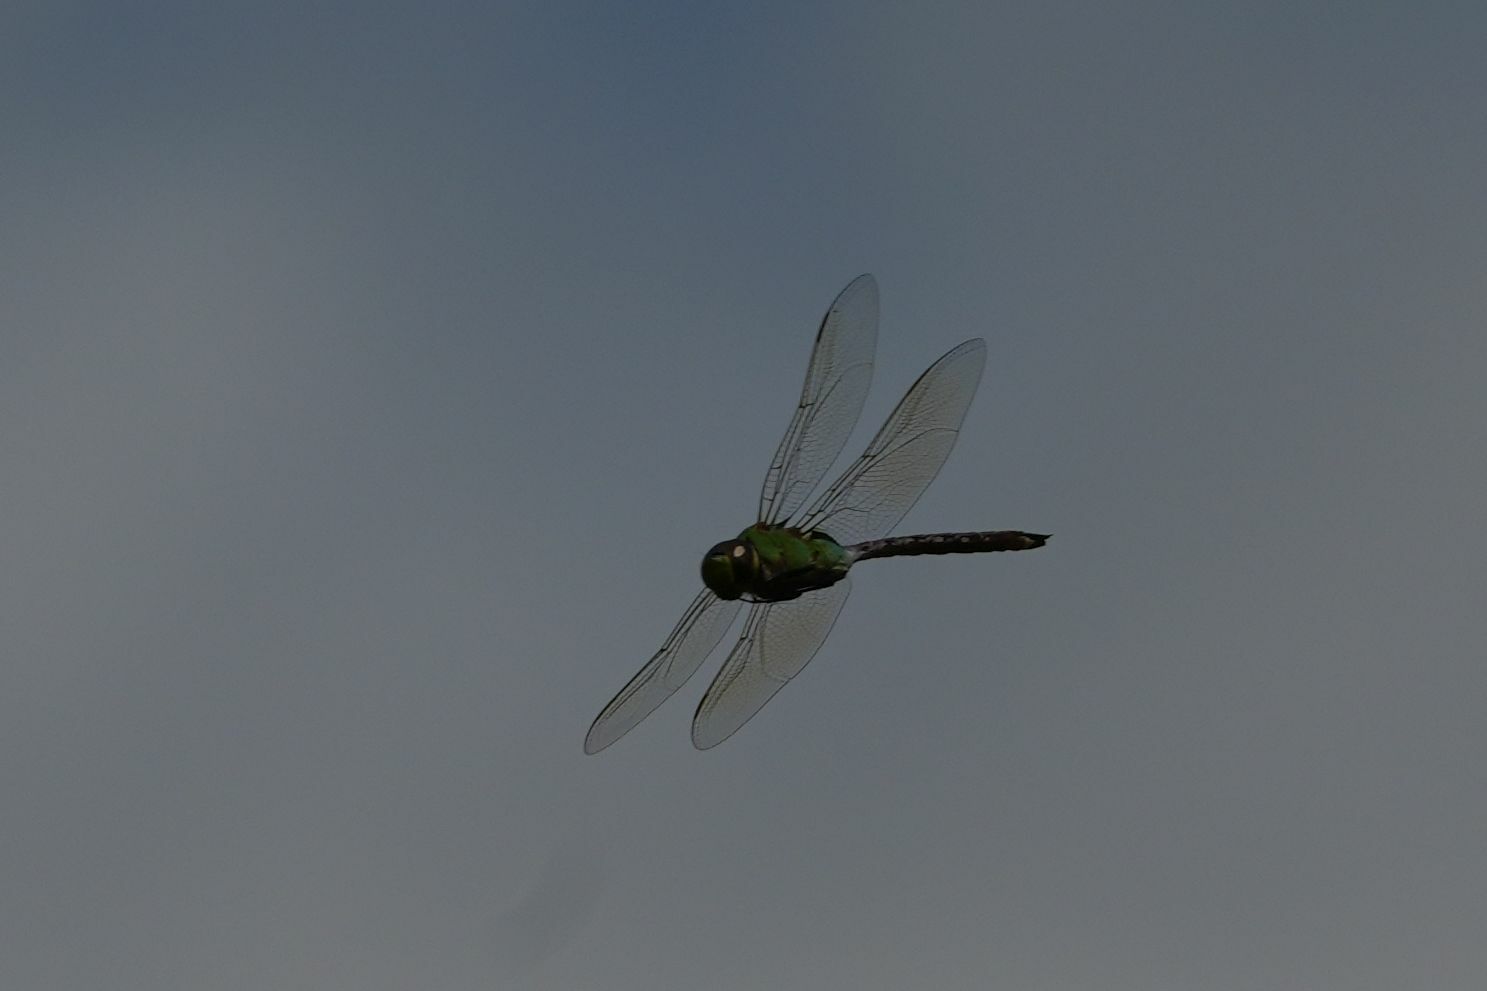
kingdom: Animalia
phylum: Arthropoda
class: Insecta
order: Odonata
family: Aeshnidae
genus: Anax
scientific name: Anax junius
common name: Common green darner
